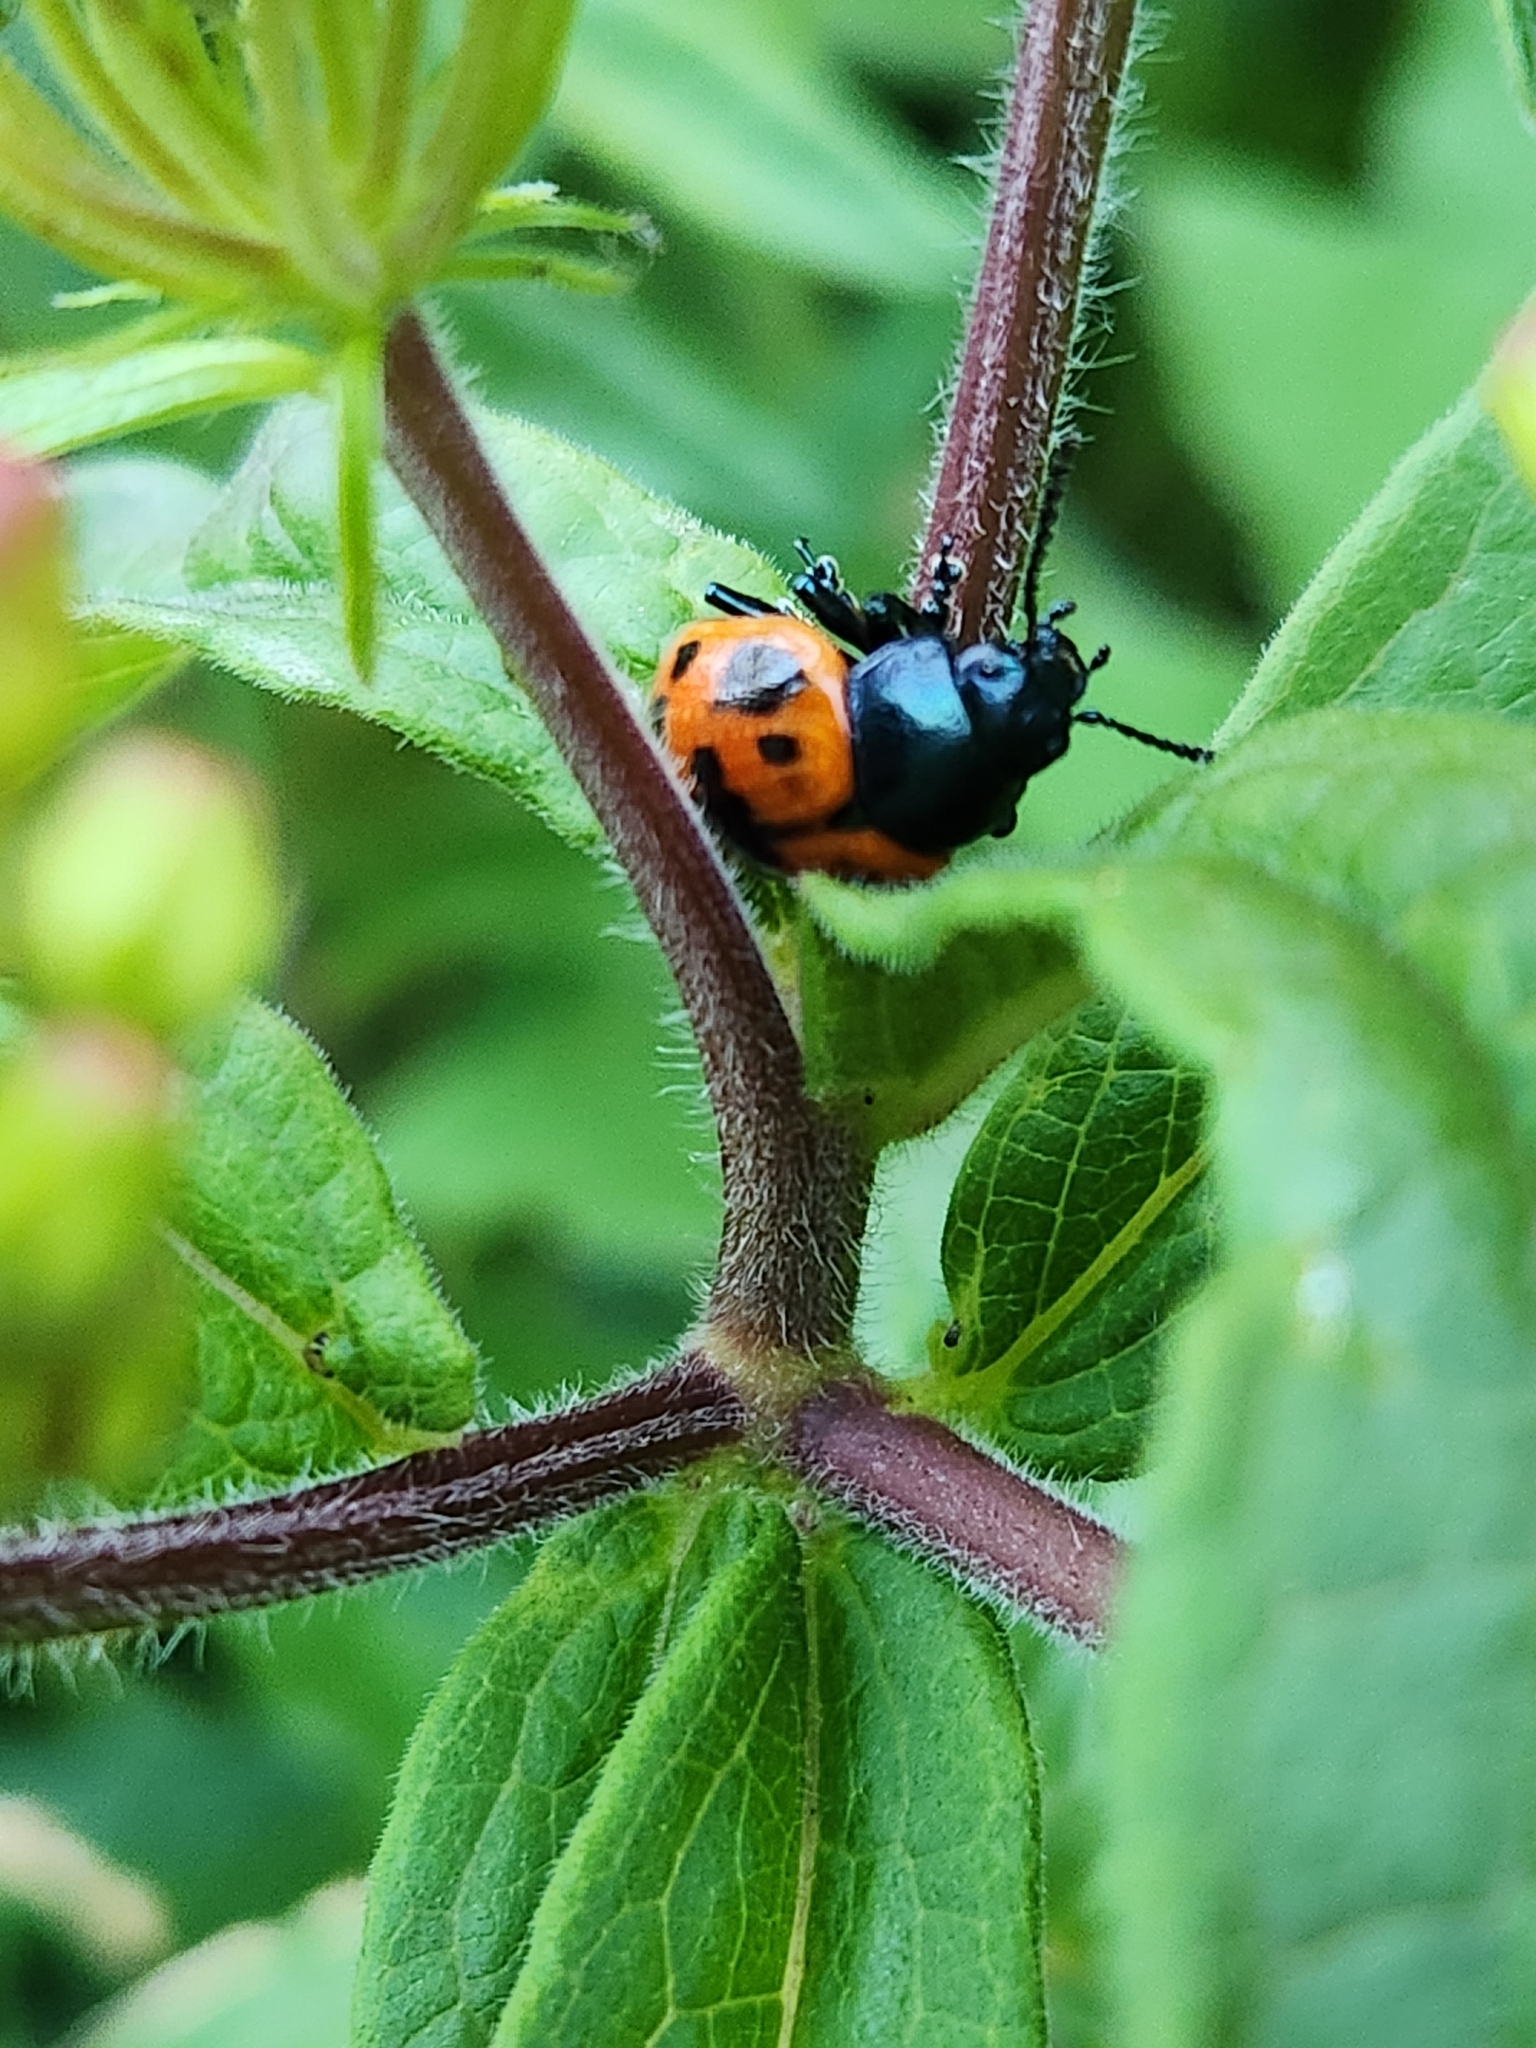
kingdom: Animalia
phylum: Arthropoda
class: Insecta
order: Coleoptera
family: Chrysomelidae
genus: Labidomera
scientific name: Labidomera clivicollis
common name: Swamp milkweed leaf beetle
